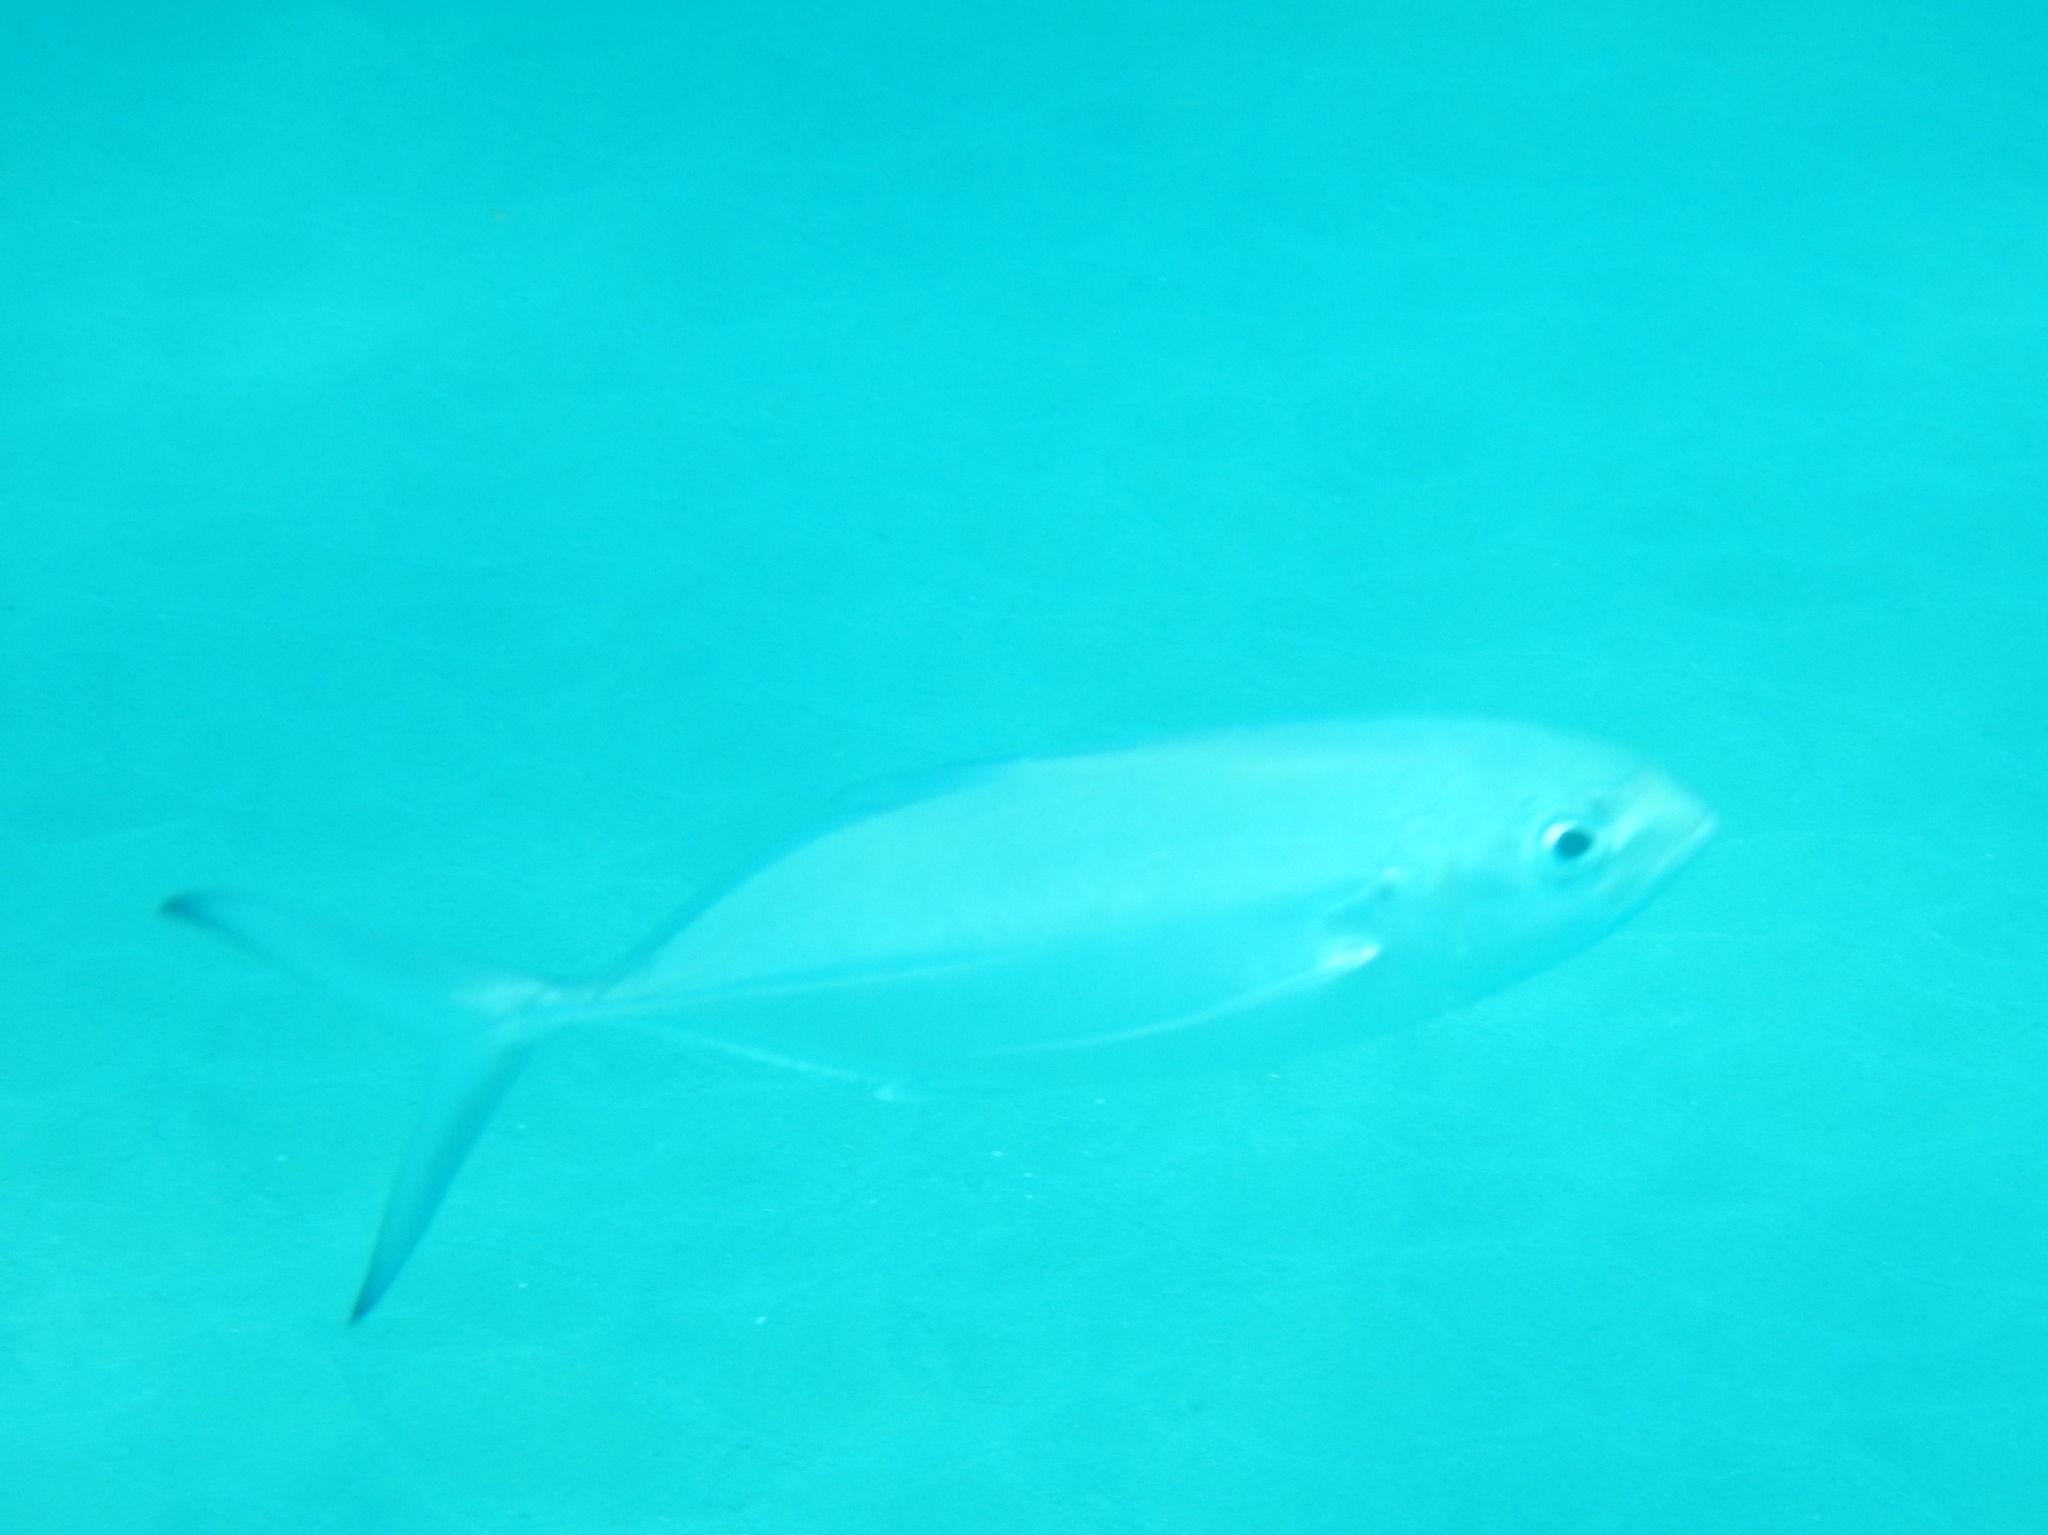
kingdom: Animalia
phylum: Chordata
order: Perciformes
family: Carangidae
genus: Caranx
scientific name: Caranx crysos
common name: Blue runner
